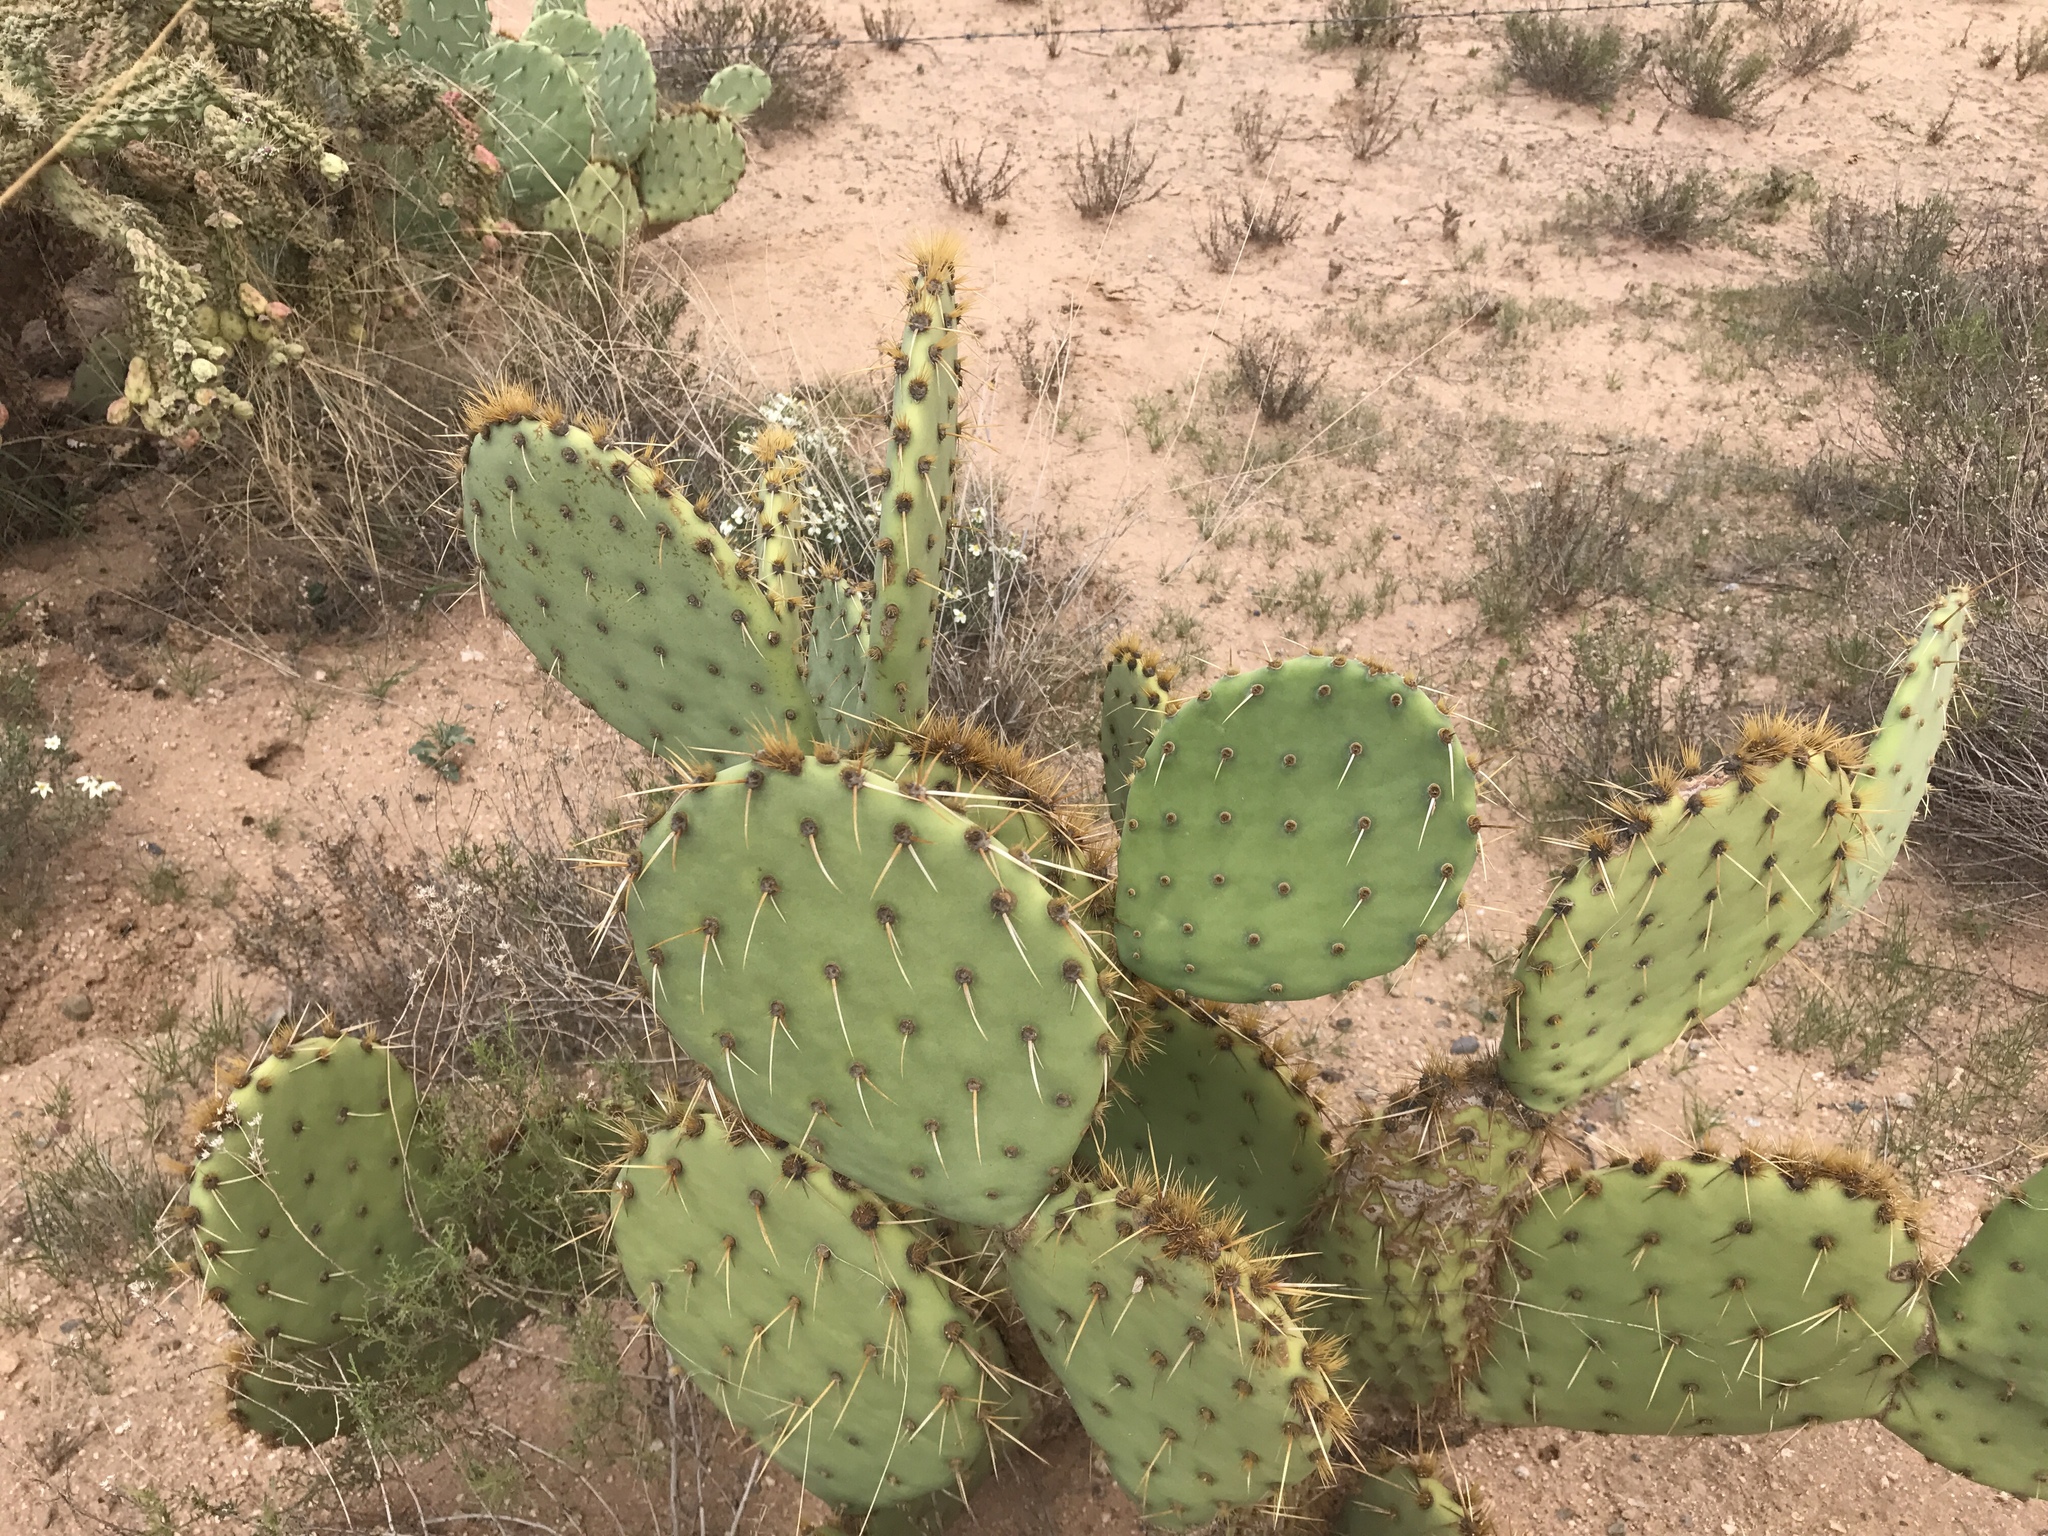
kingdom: Plantae
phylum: Tracheophyta
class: Magnoliopsida
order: Caryophyllales
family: Cactaceae
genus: Opuntia
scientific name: Opuntia engelmannii
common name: Cactus-apple
